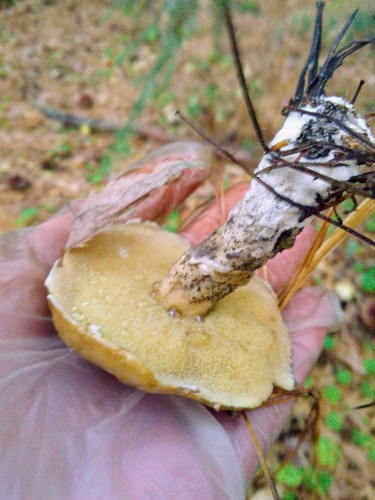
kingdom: Fungi
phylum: Basidiomycota
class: Agaricomycetes
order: Boletales
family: Suillaceae
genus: Suillus
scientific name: Suillus acidus
